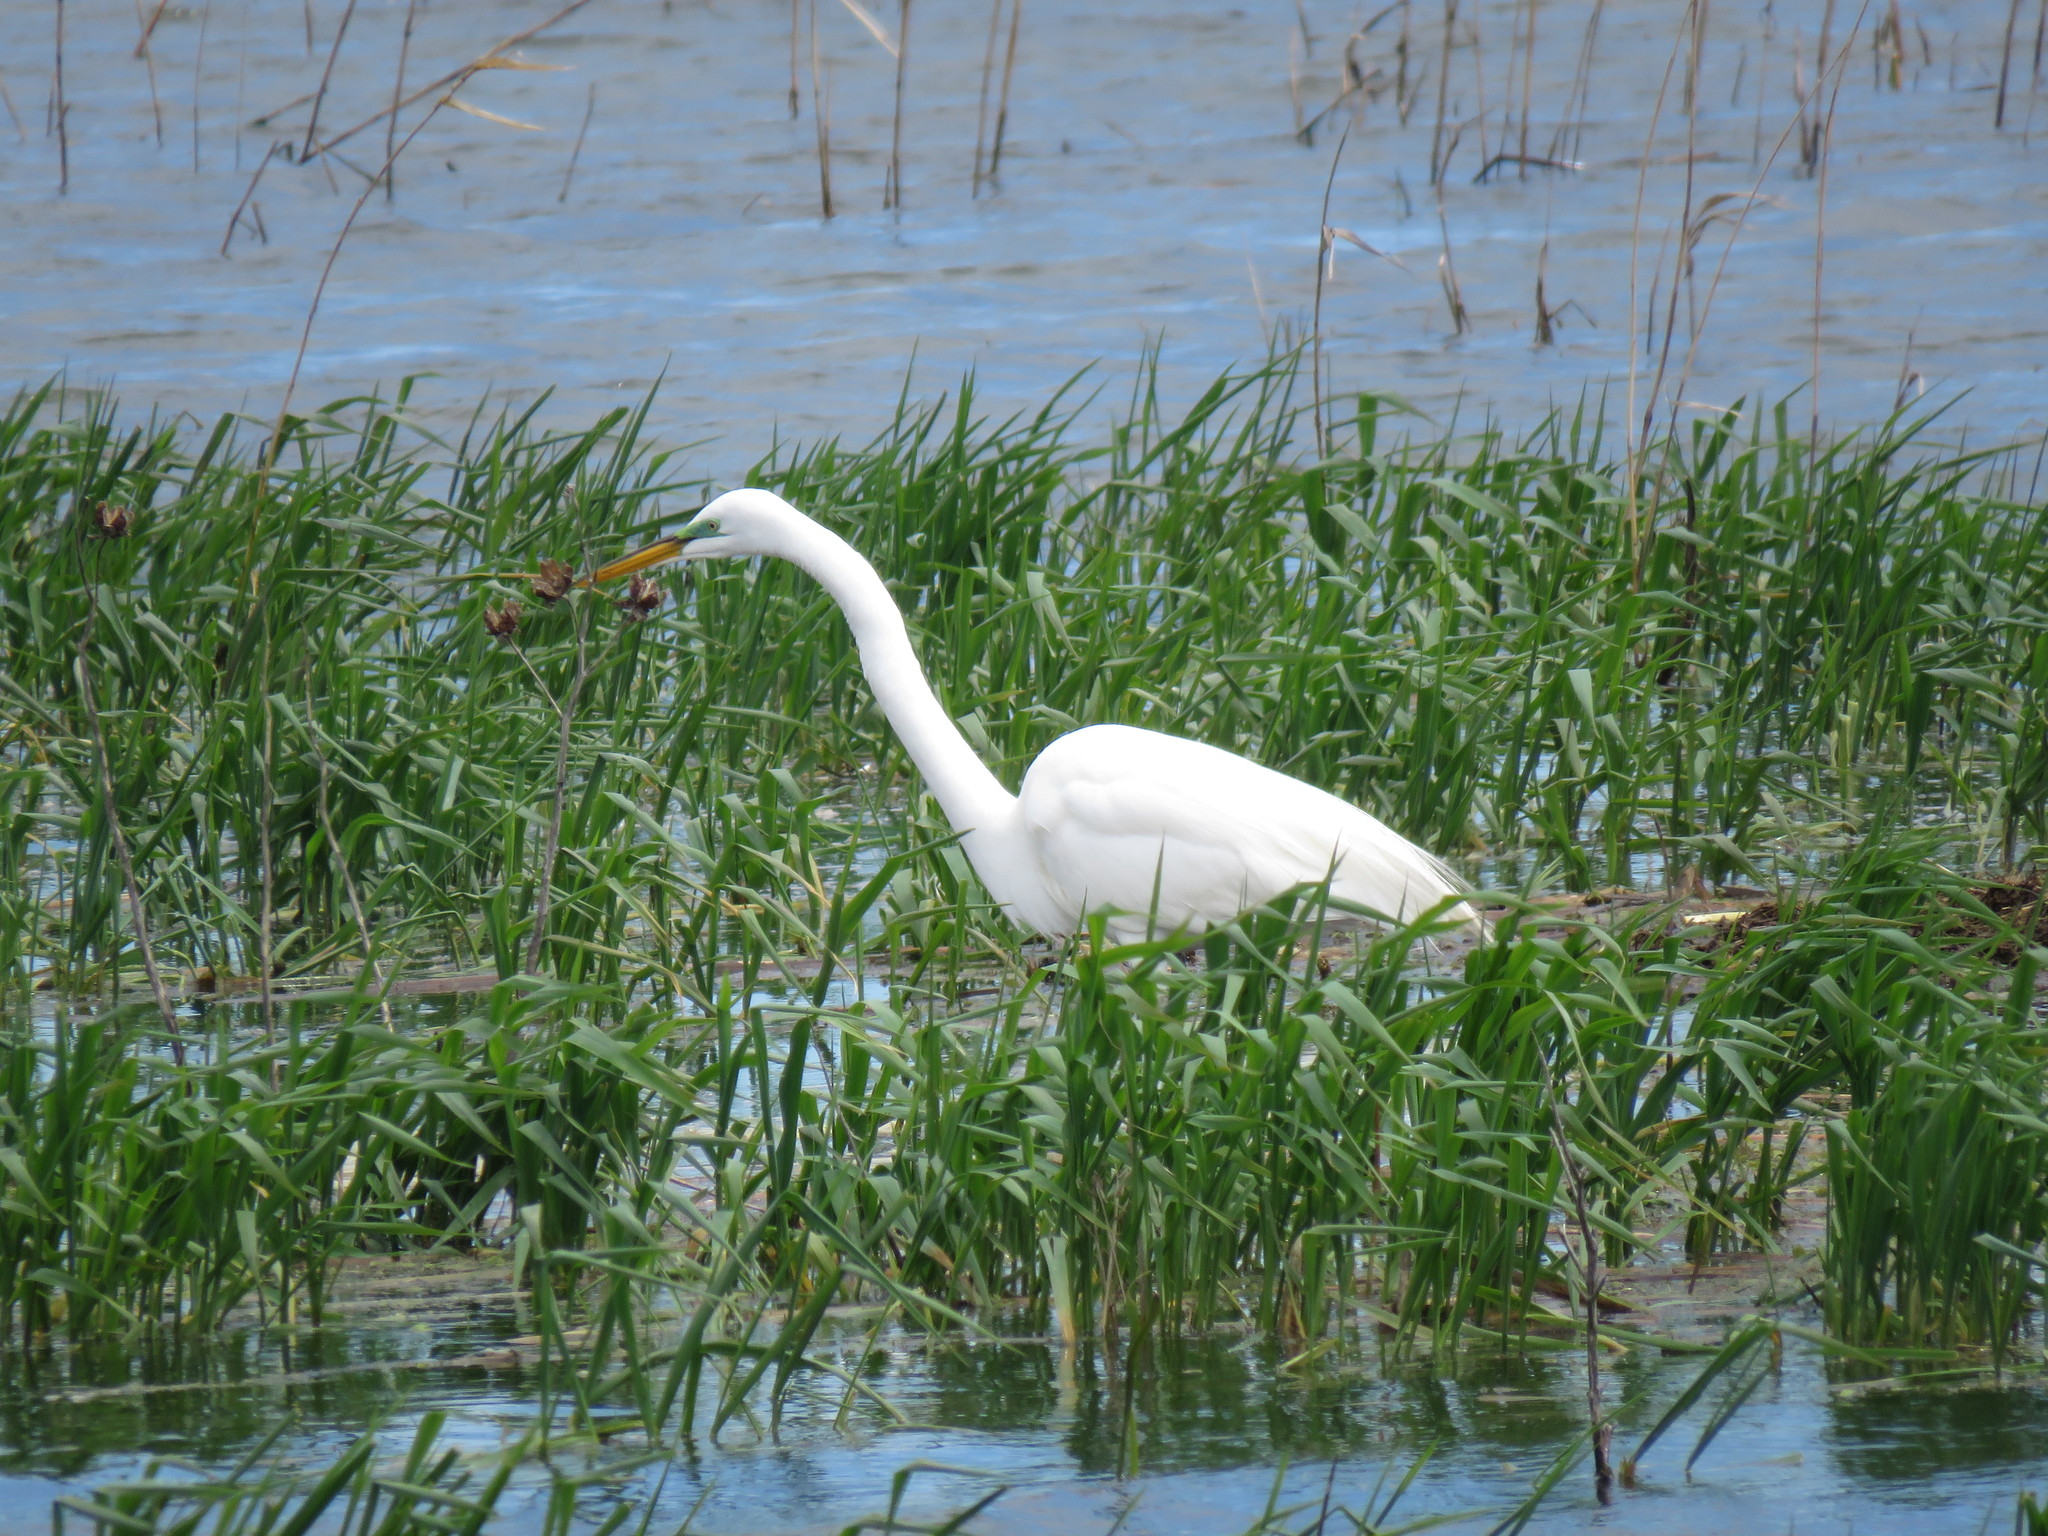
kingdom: Animalia
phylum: Chordata
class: Aves
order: Pelecaniformes
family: Ardeidae
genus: Ardea
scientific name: Ardea alba
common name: Great egret
